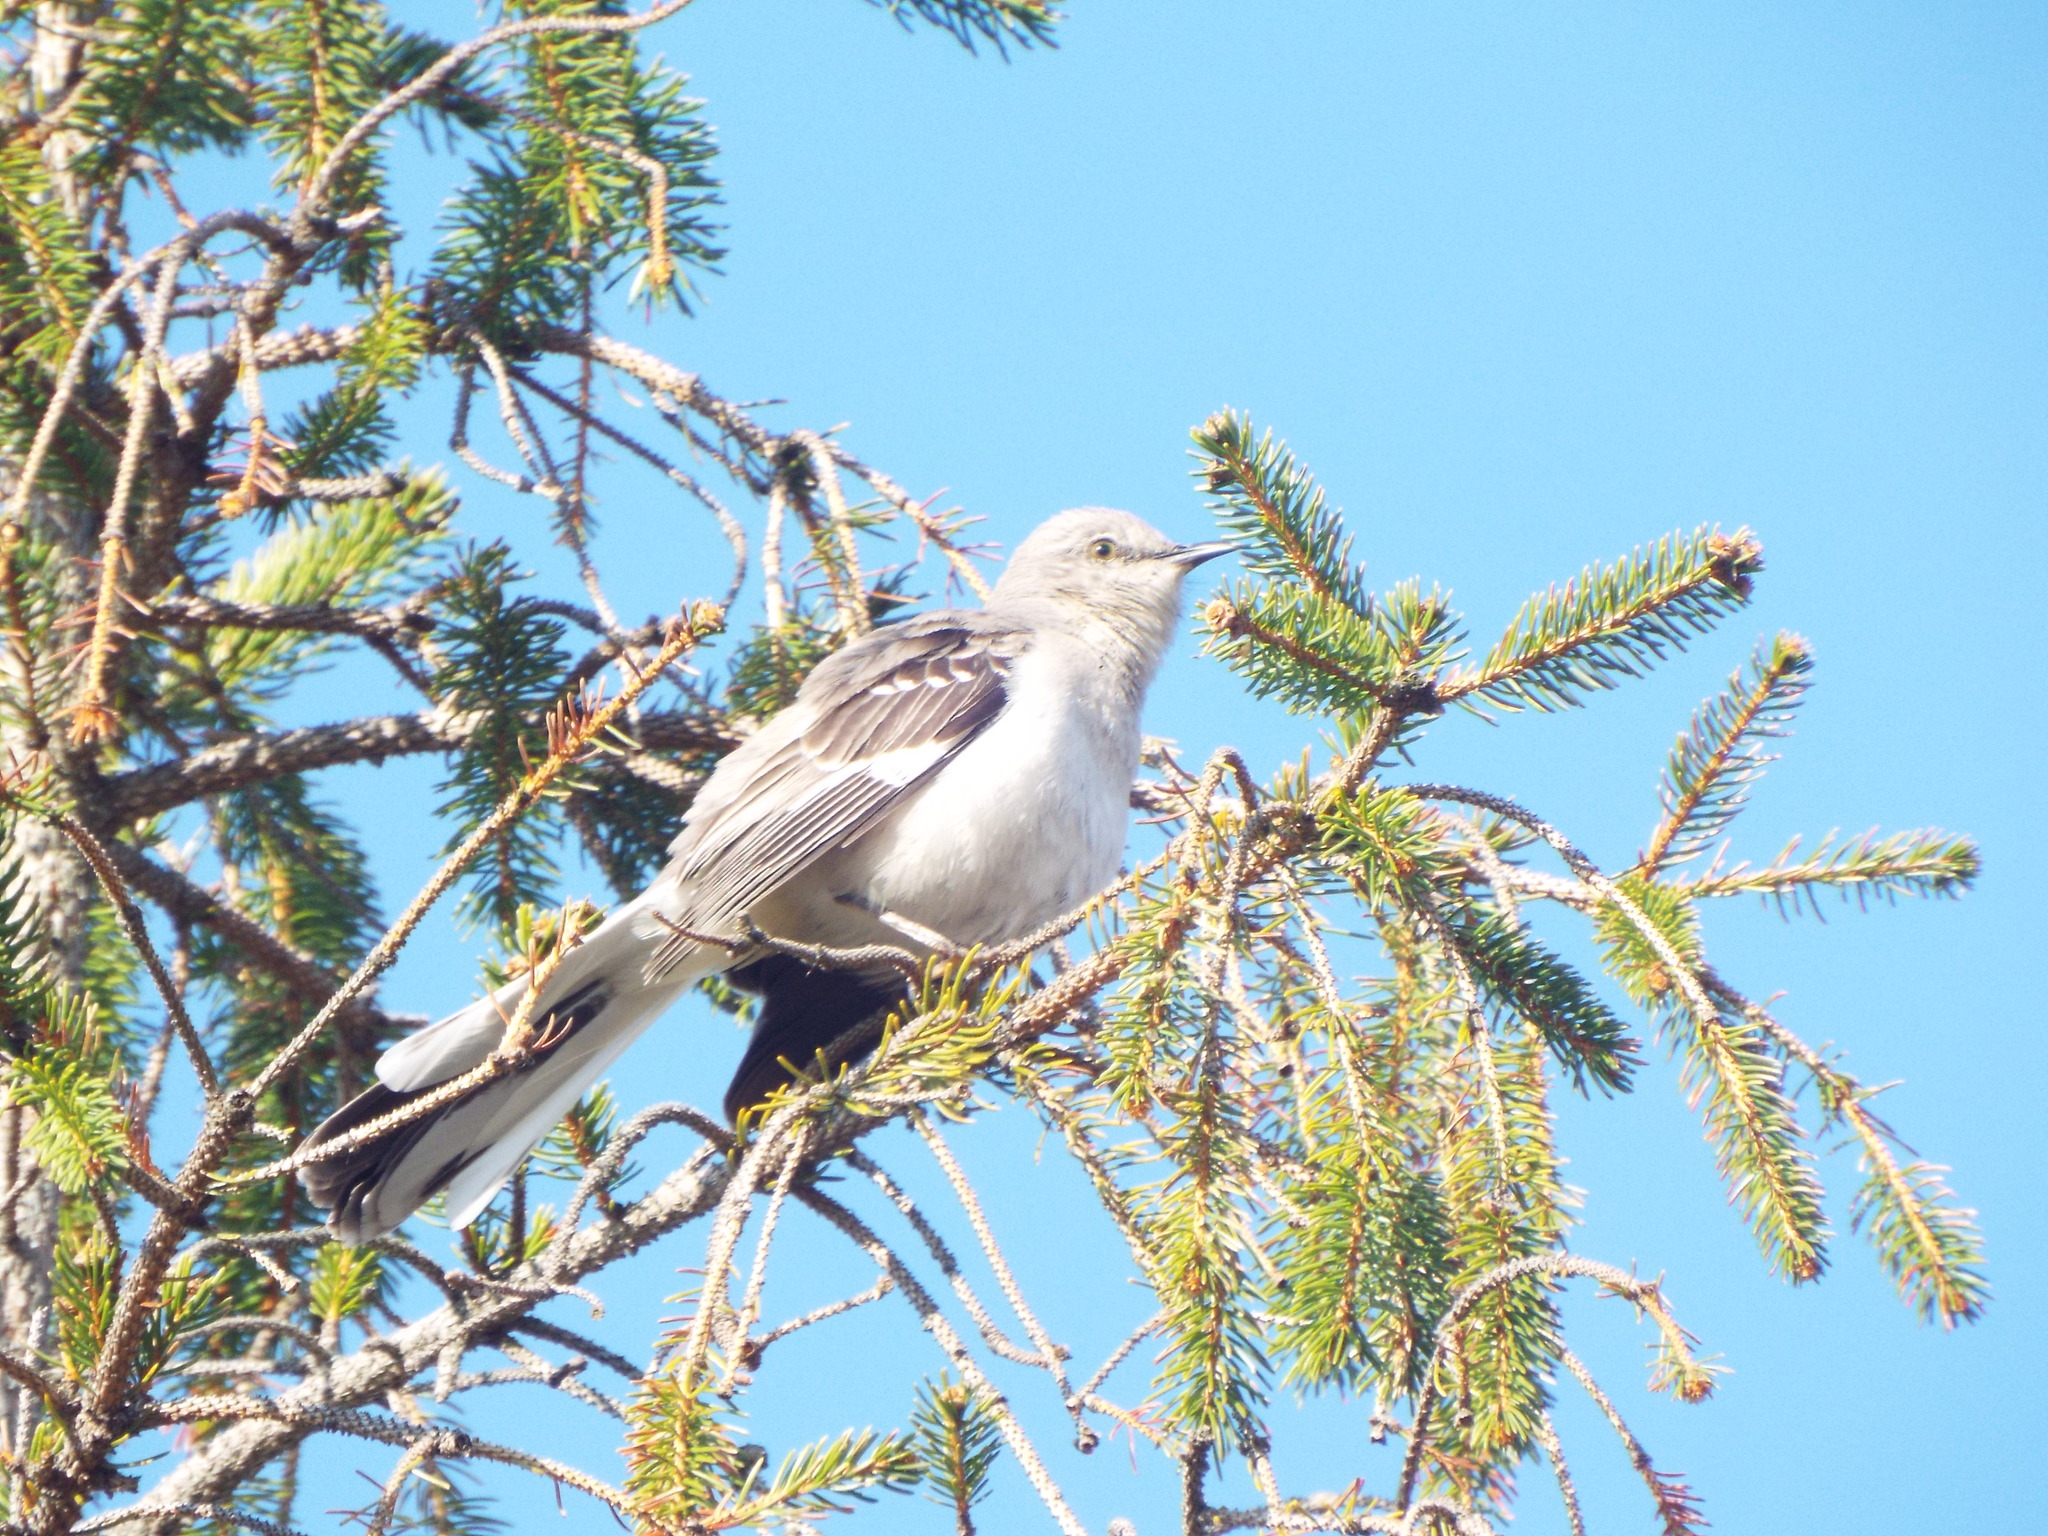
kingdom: Animalia
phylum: Chordata
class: Aves
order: Passeriformes
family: Mimidae
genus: Mimus
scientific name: Mimus polyglottos
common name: Northern mockingbird
